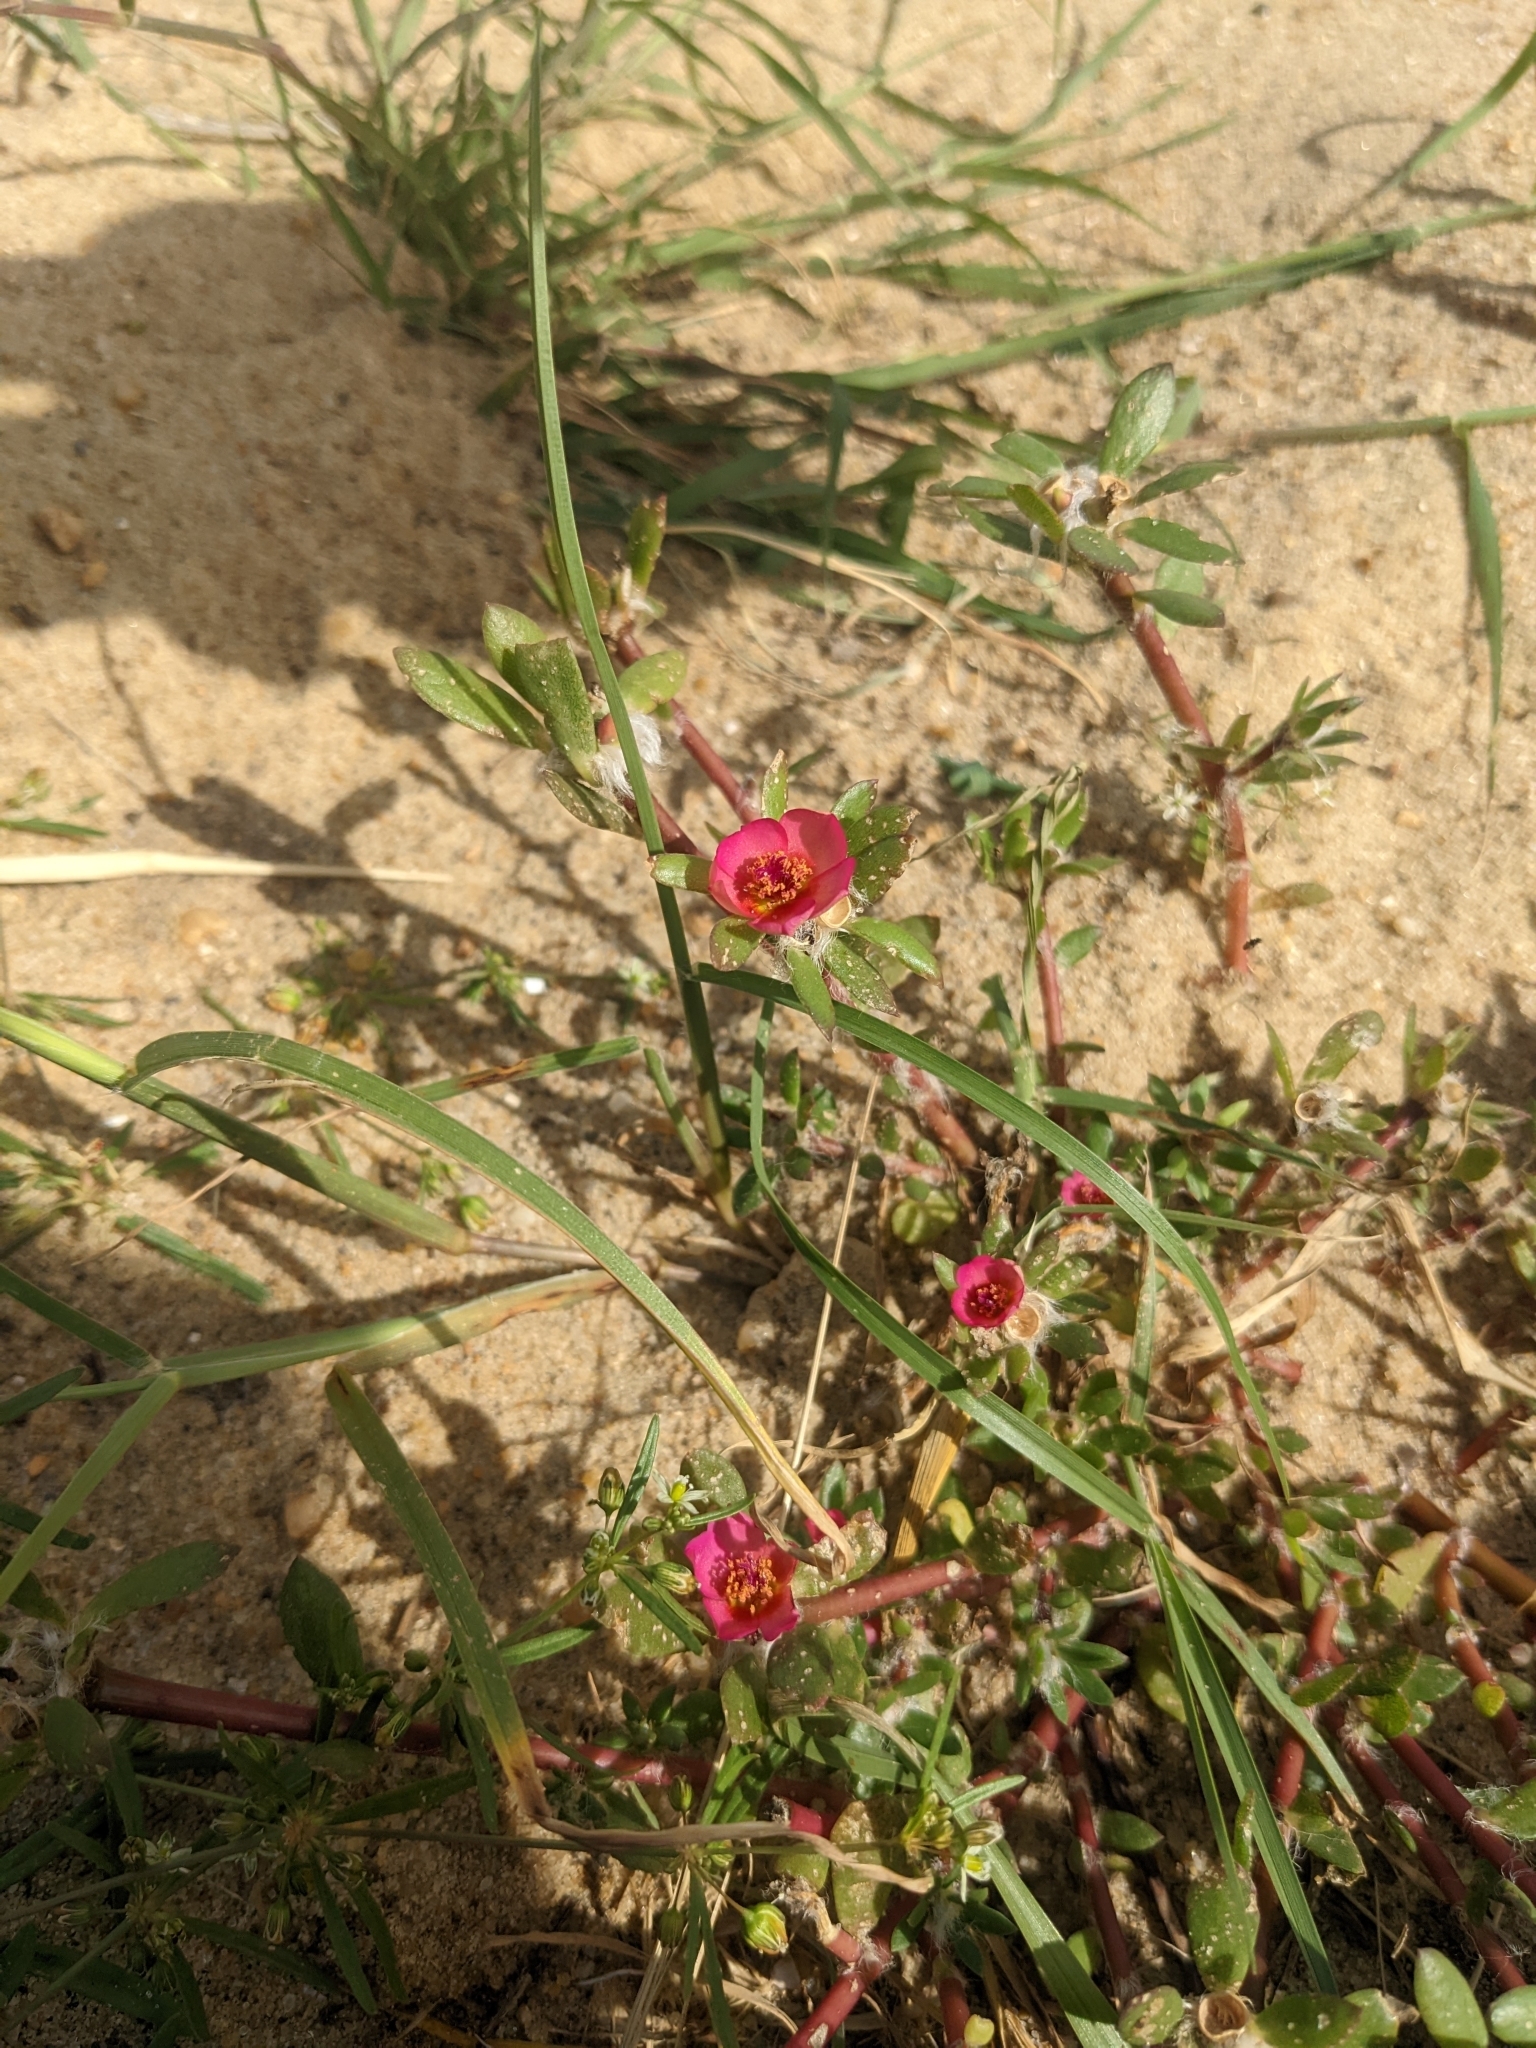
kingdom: Plantae
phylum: Tracheophyta
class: Magnoliopsida
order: Caryophyllales
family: Portulacaceae
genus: Portulaca
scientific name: Portulaca amilis
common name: Paraguayan purslane
